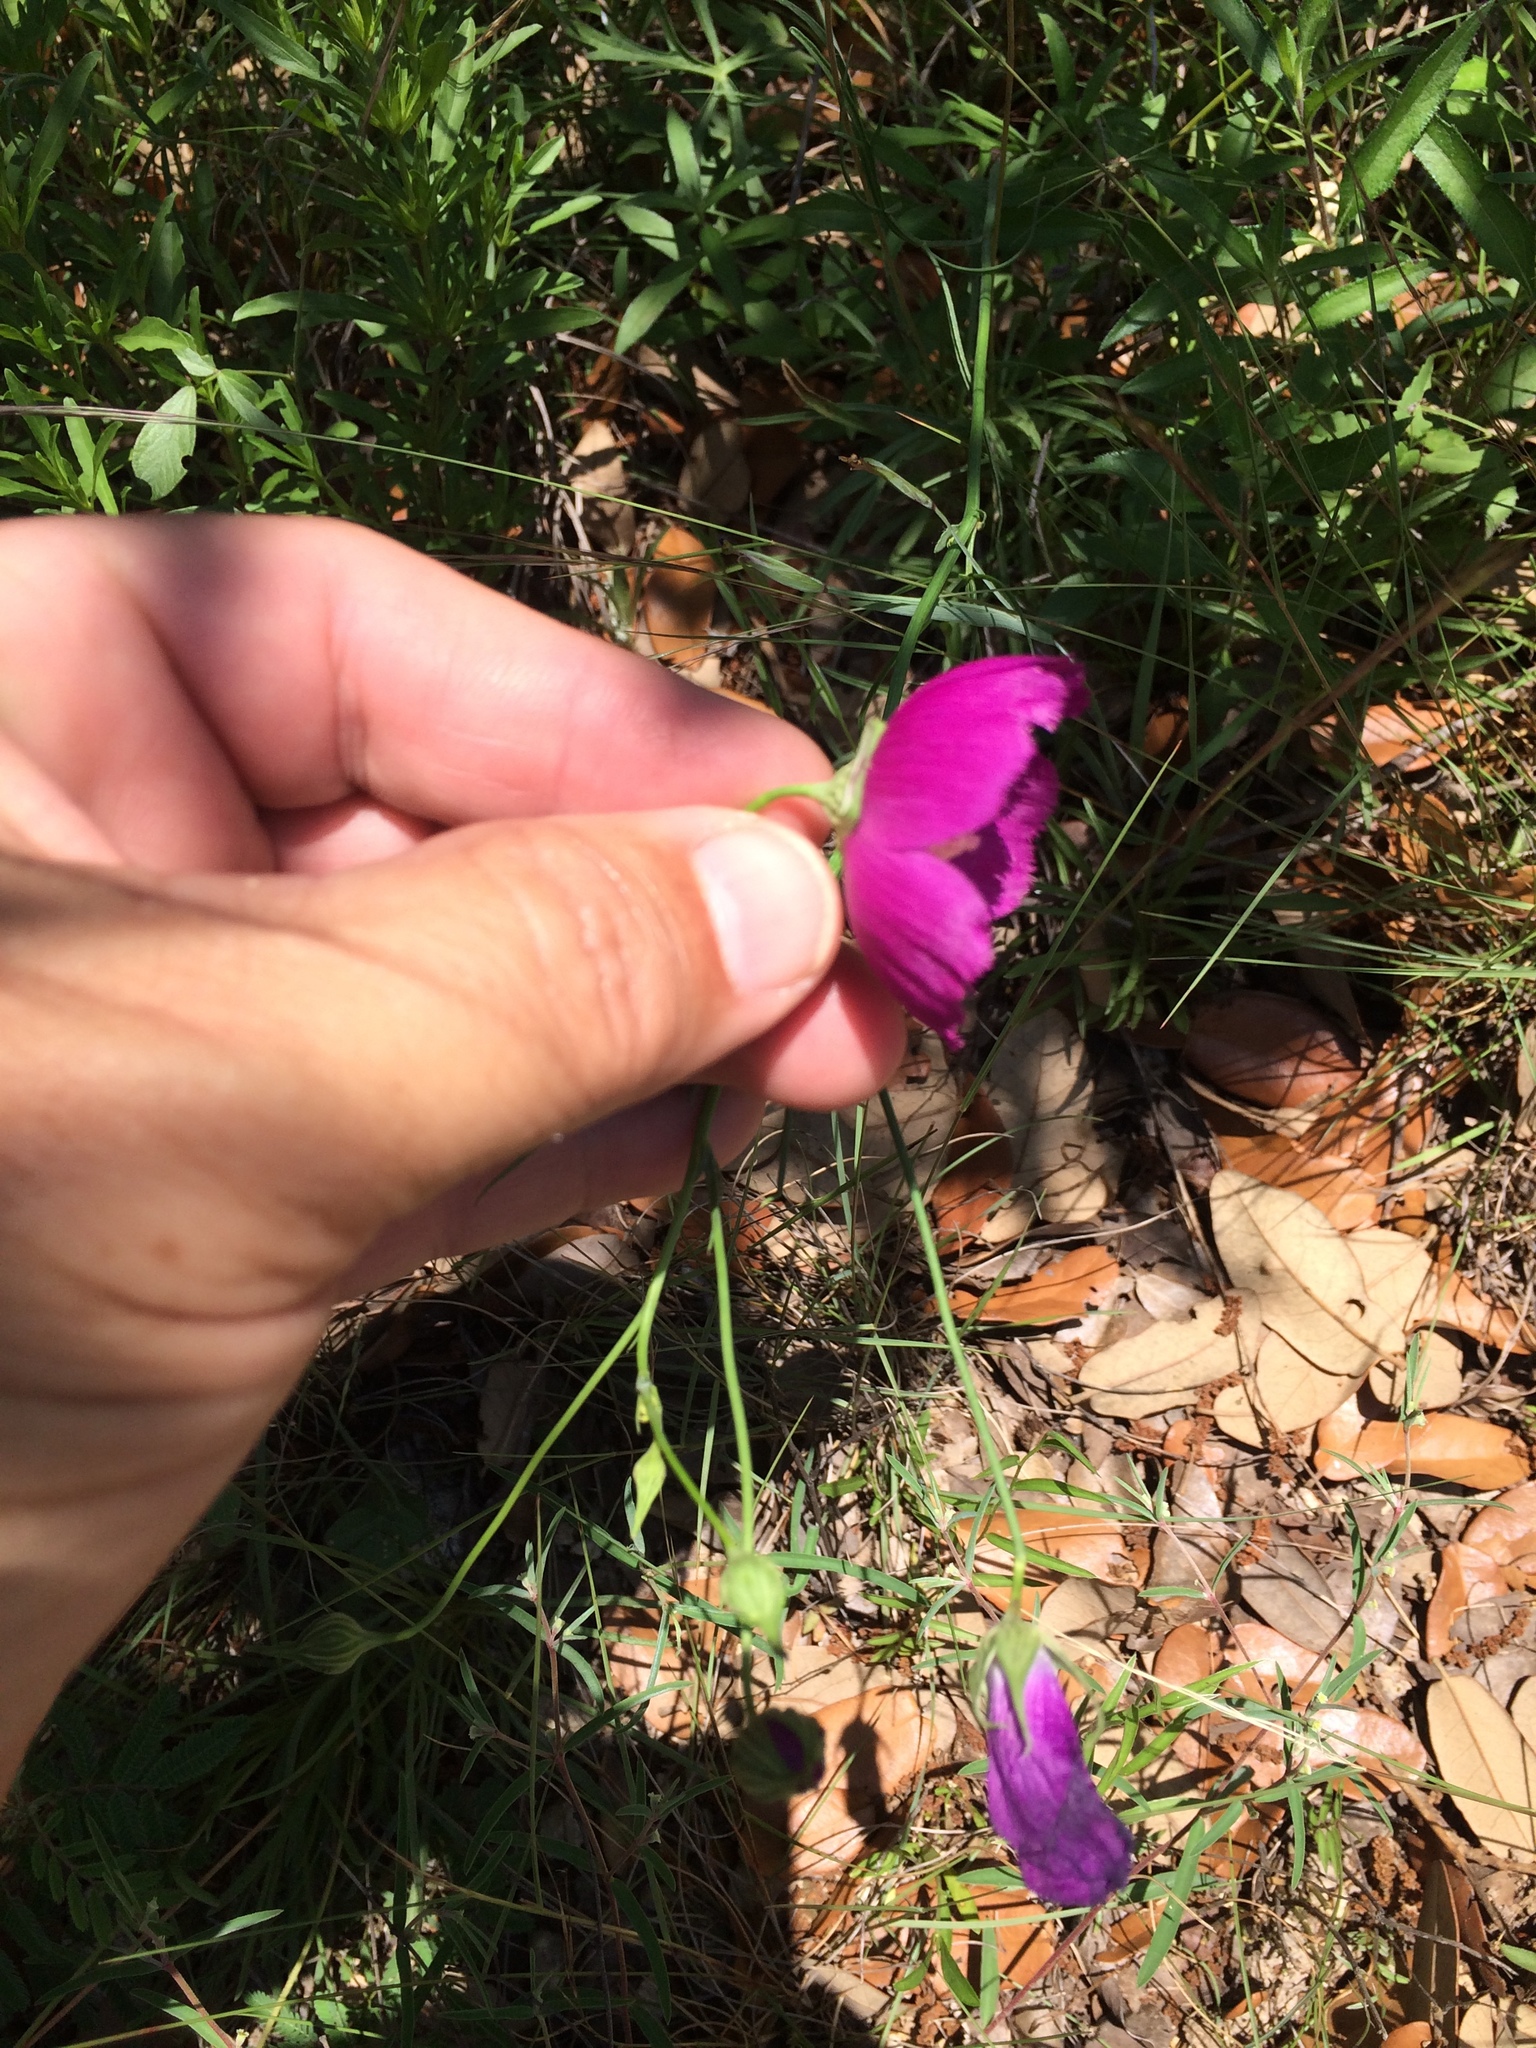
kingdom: Plantae
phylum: Tracheophyta
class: Magnoliopsida
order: Malvales
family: Malvaceae
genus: Callirhoe
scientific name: Callirhoe pedata
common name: Finger poppy-mallow
